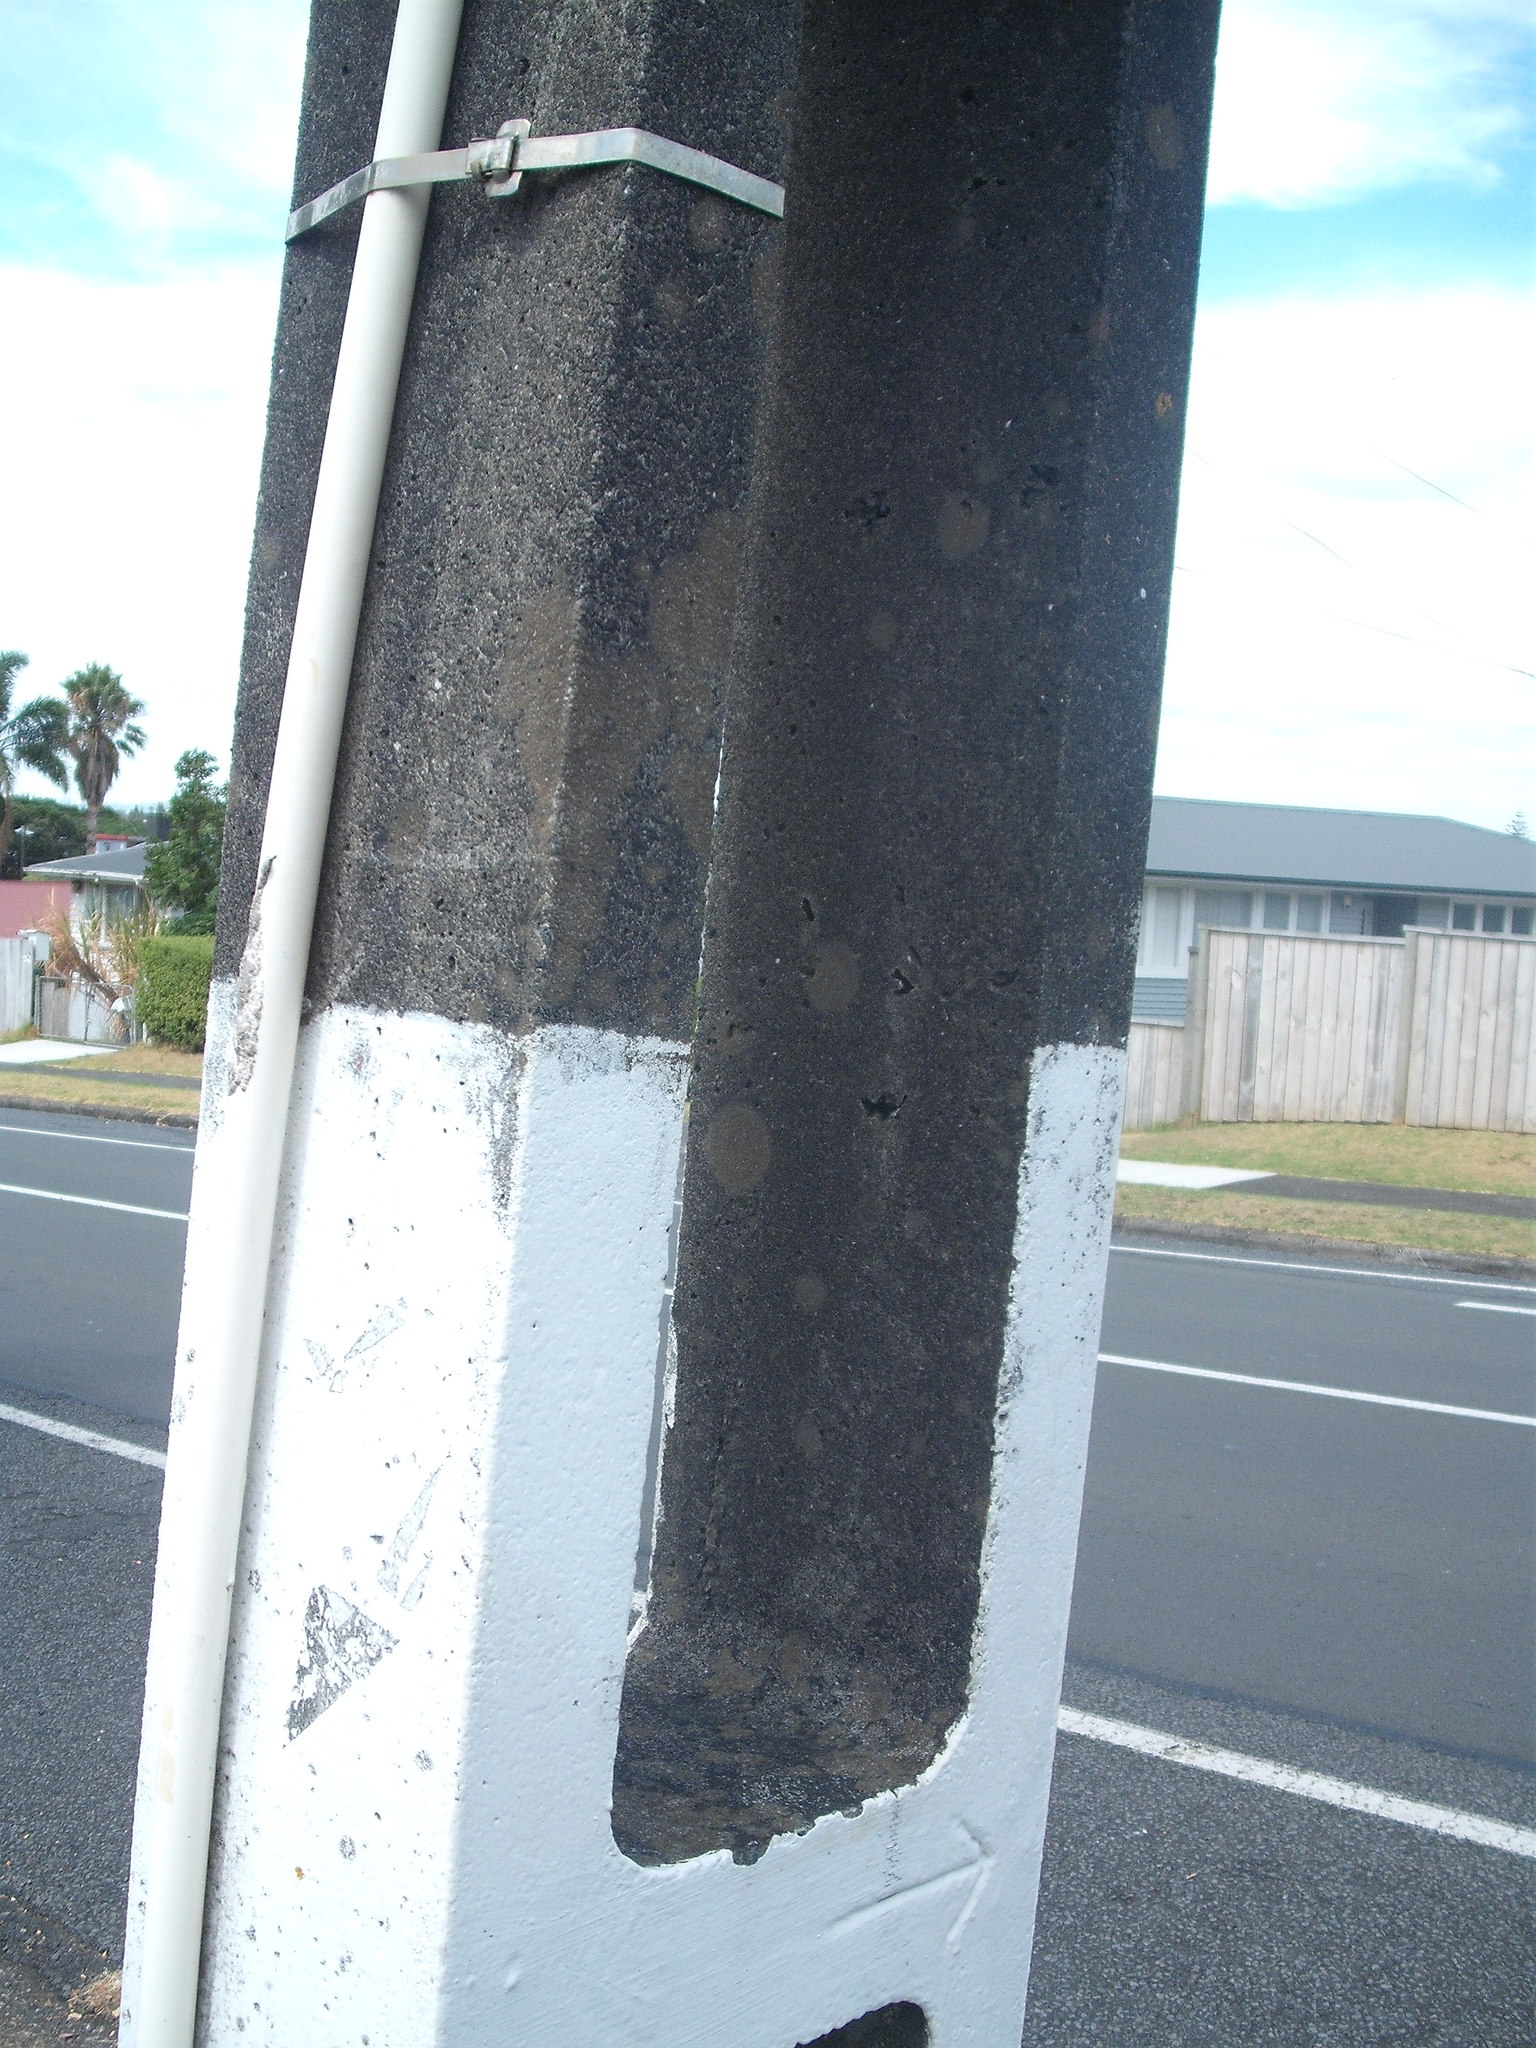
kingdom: Fungi
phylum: Ascomycota
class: Lecanoromycetes
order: Lecanorales
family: Psoraceae
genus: Protoblastenia
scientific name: Protoblastenia rupestris
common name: Chewing gum lichen
